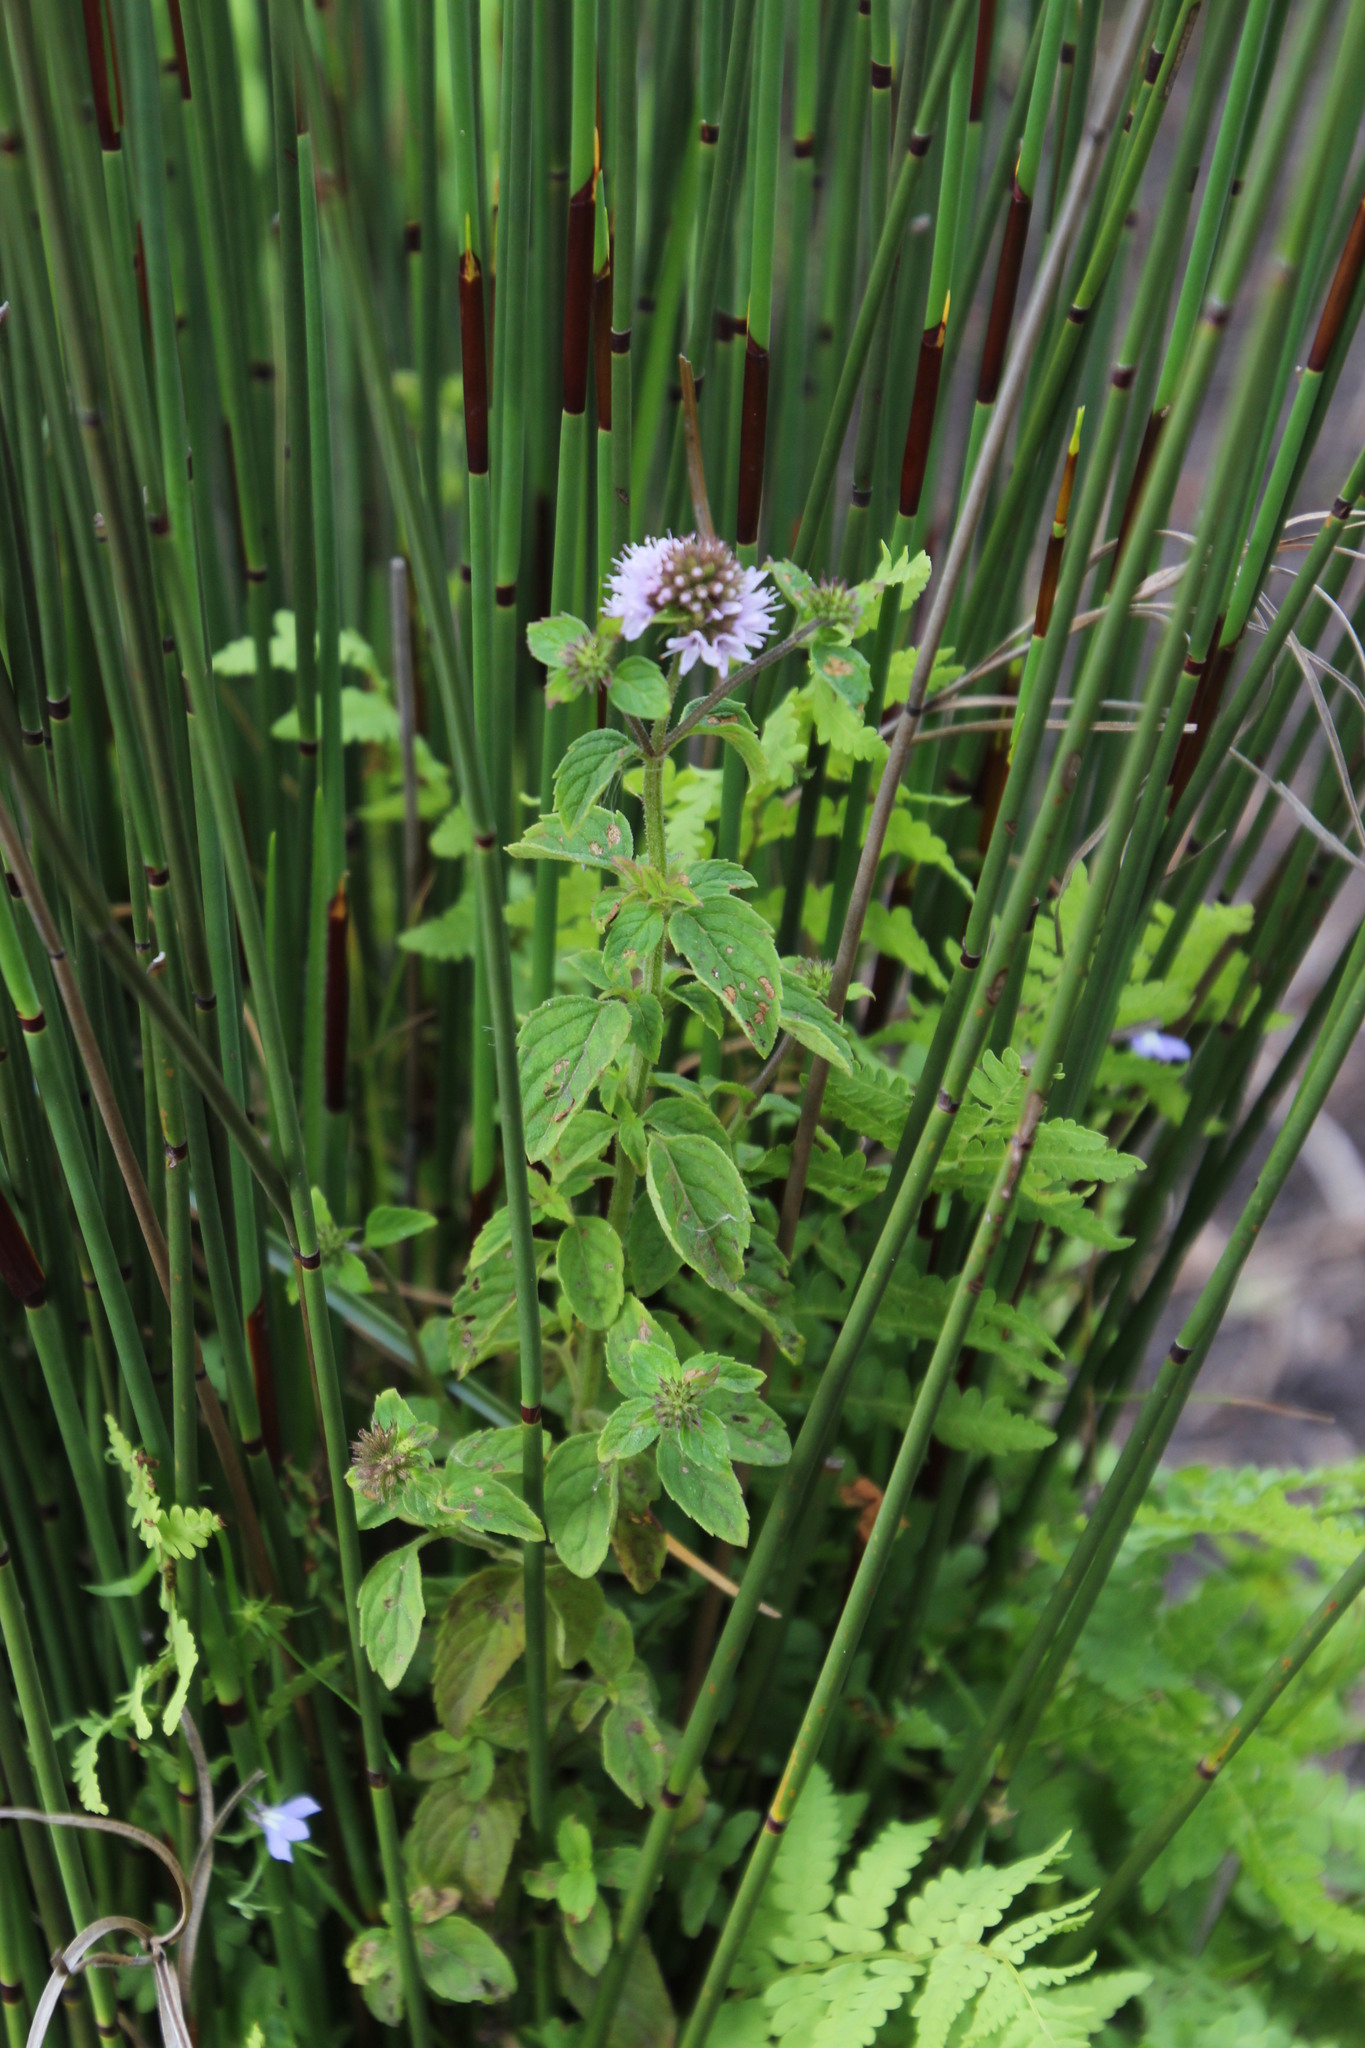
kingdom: Plantae
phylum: Tracheophyta
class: Magnoliopsida
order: Lamiales
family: Lamiaceae
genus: Mentha
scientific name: Mentha aquatica
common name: Water mint
